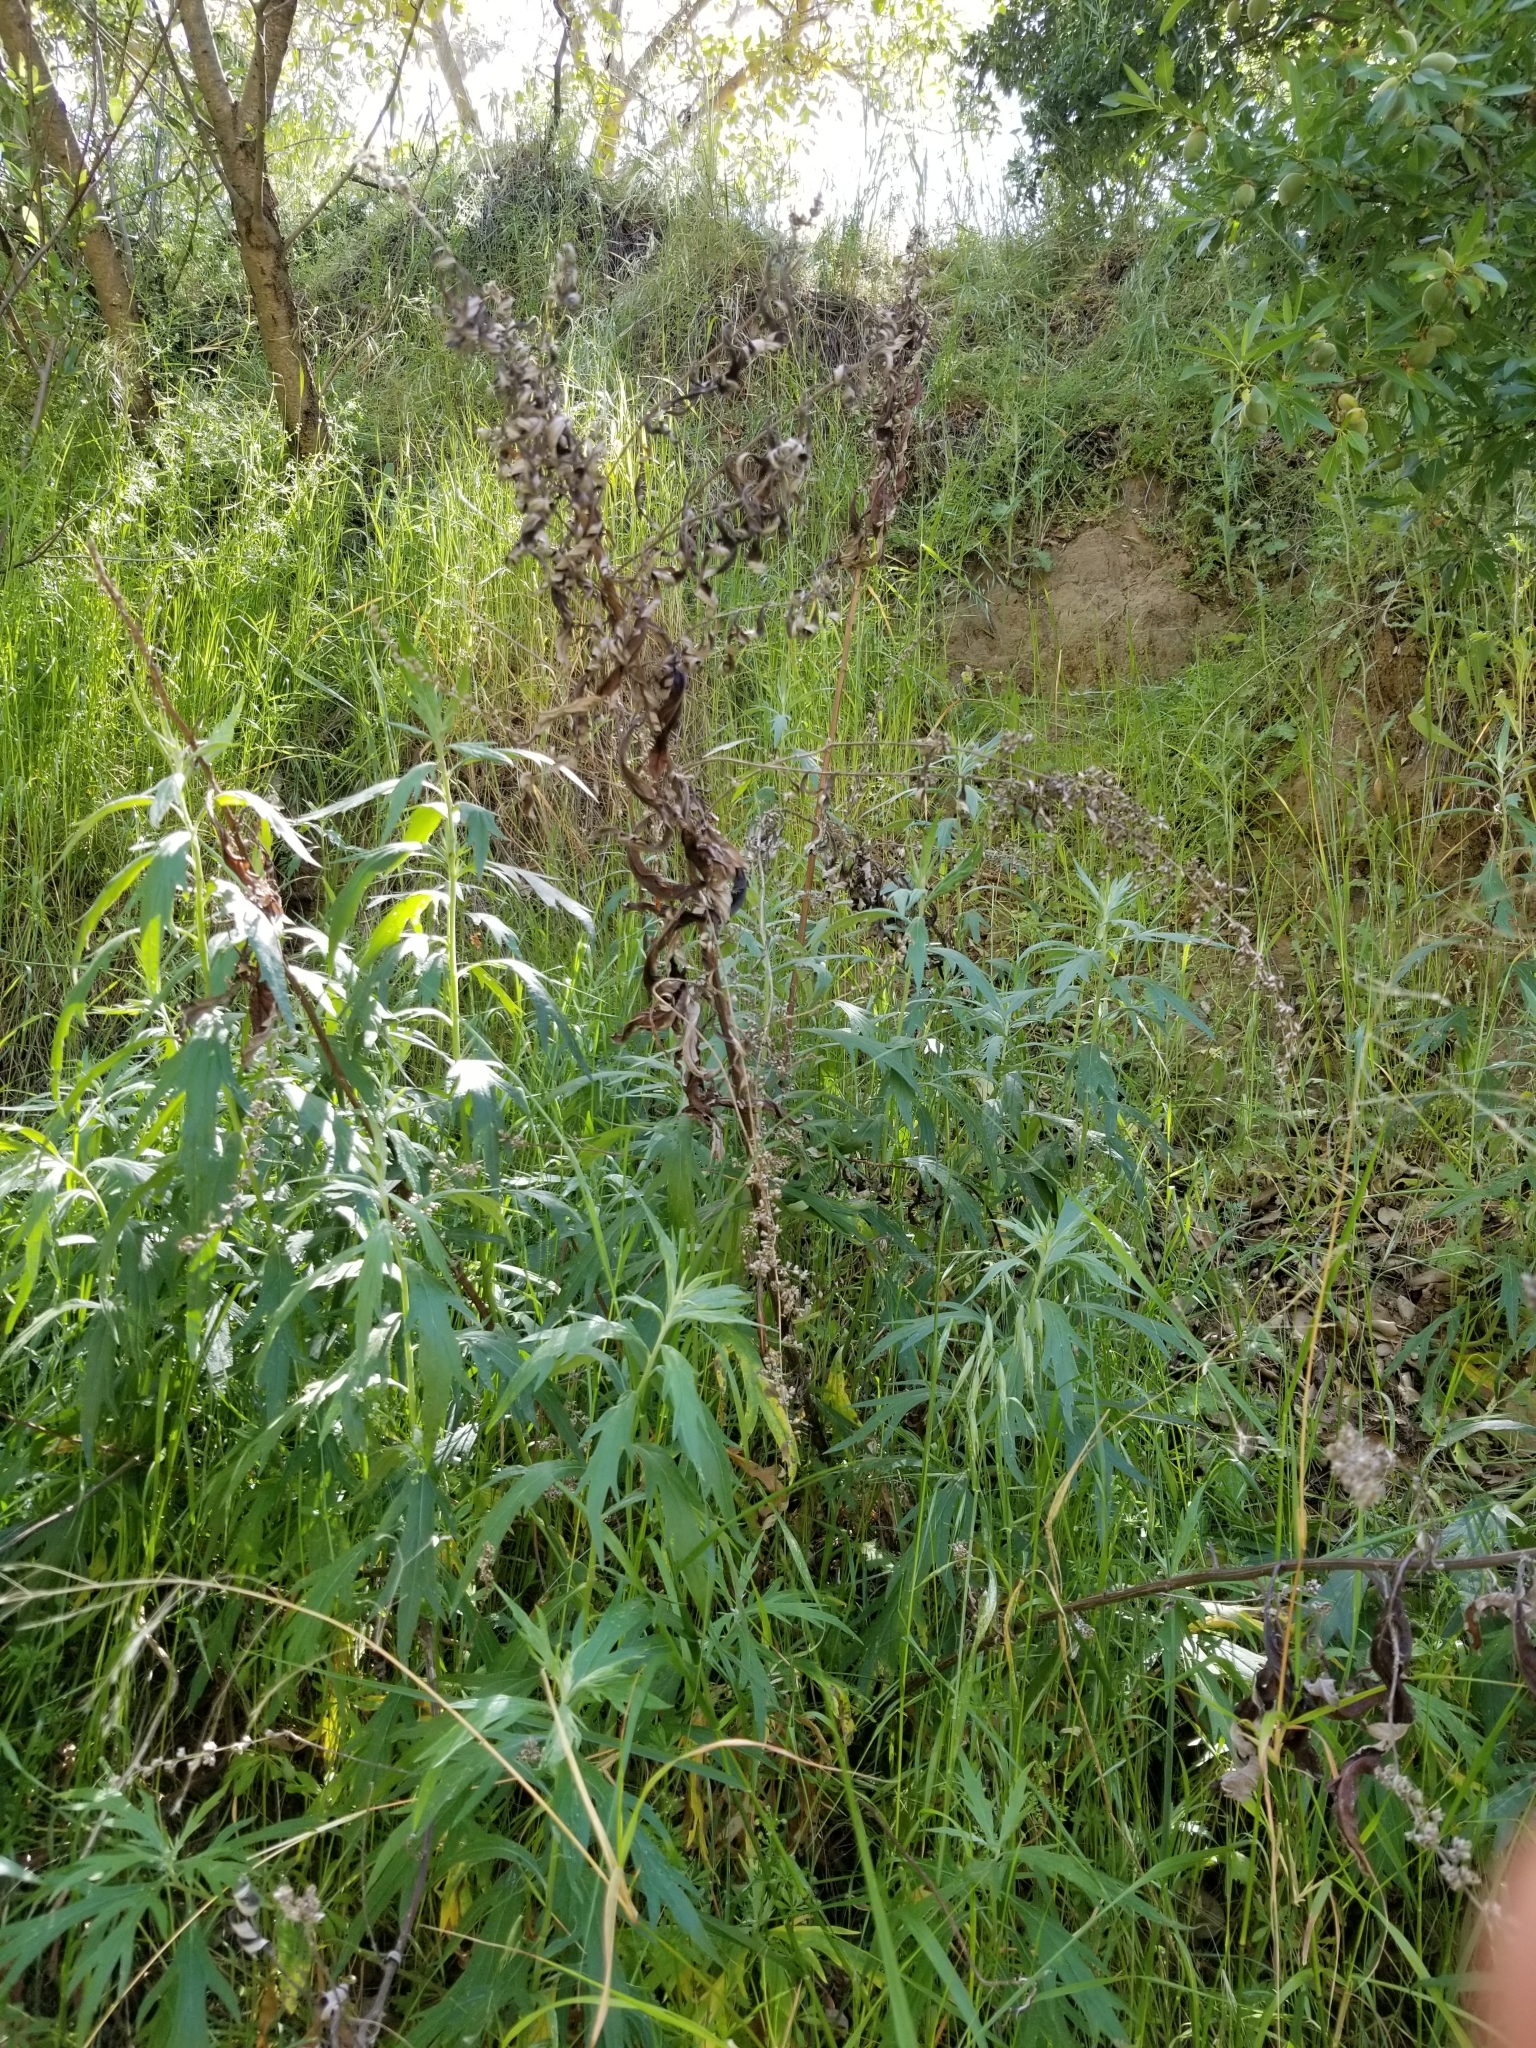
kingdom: Plantae
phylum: Tracheophyta
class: Magnoliopsida
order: Asterales
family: Asteraceae
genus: Artemisia
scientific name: Artemisia douglasiana
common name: Northwest mugwort
